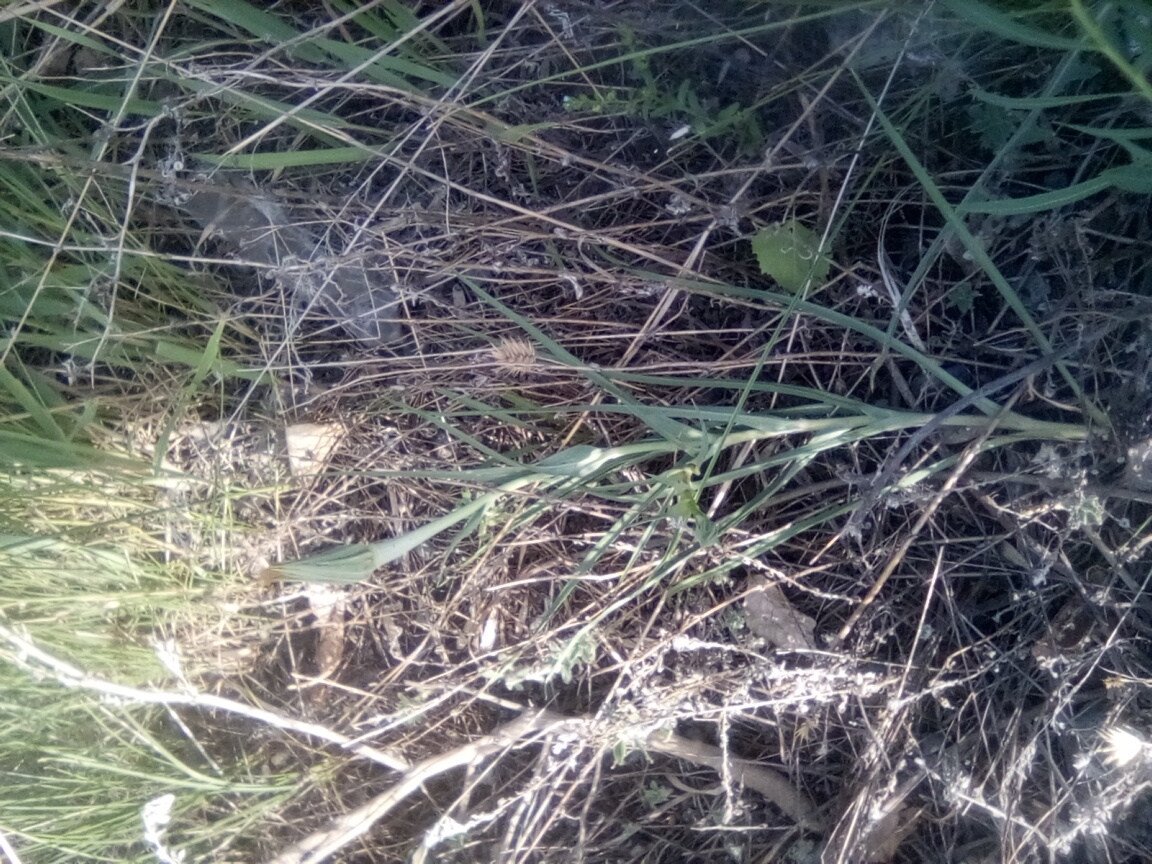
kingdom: Plantae
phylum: Tracheophyta
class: Magnoliopsida
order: Asterales
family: Asteraceae
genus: Tragopogon
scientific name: Tragopogon dubius
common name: Yellow salsify
